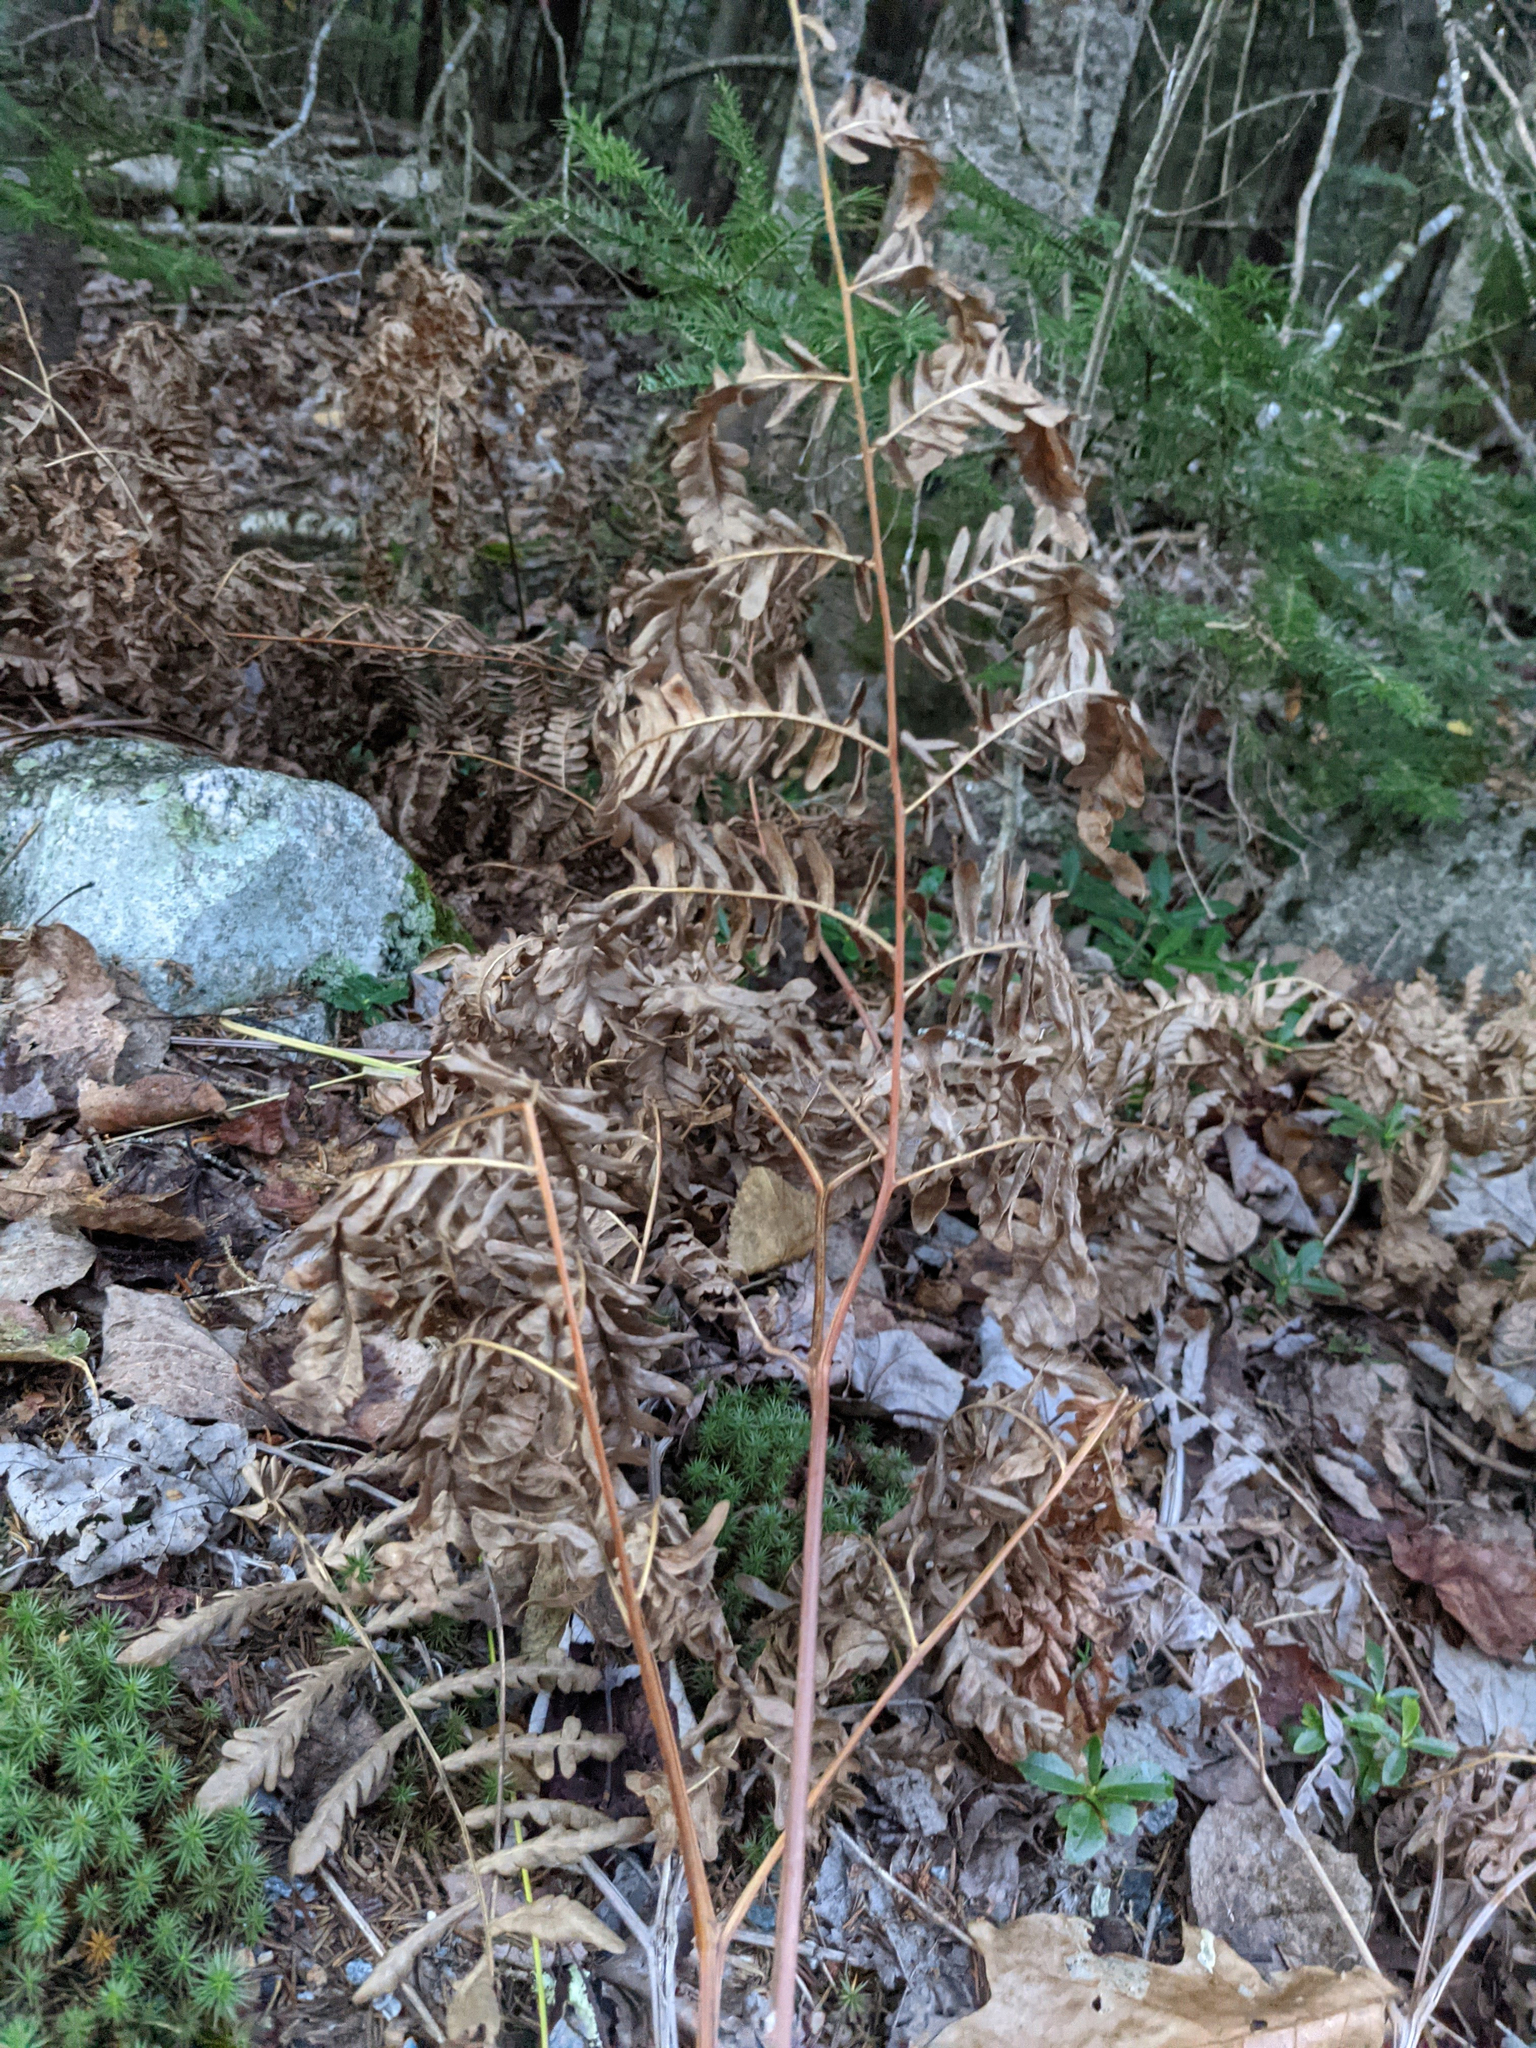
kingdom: Plantae
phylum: Tracheophyta
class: Polypodiopsida
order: Polypodiales
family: Dennstaedtiaceae
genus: Pteridium
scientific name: Pteridium aquilinum
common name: Bracken
